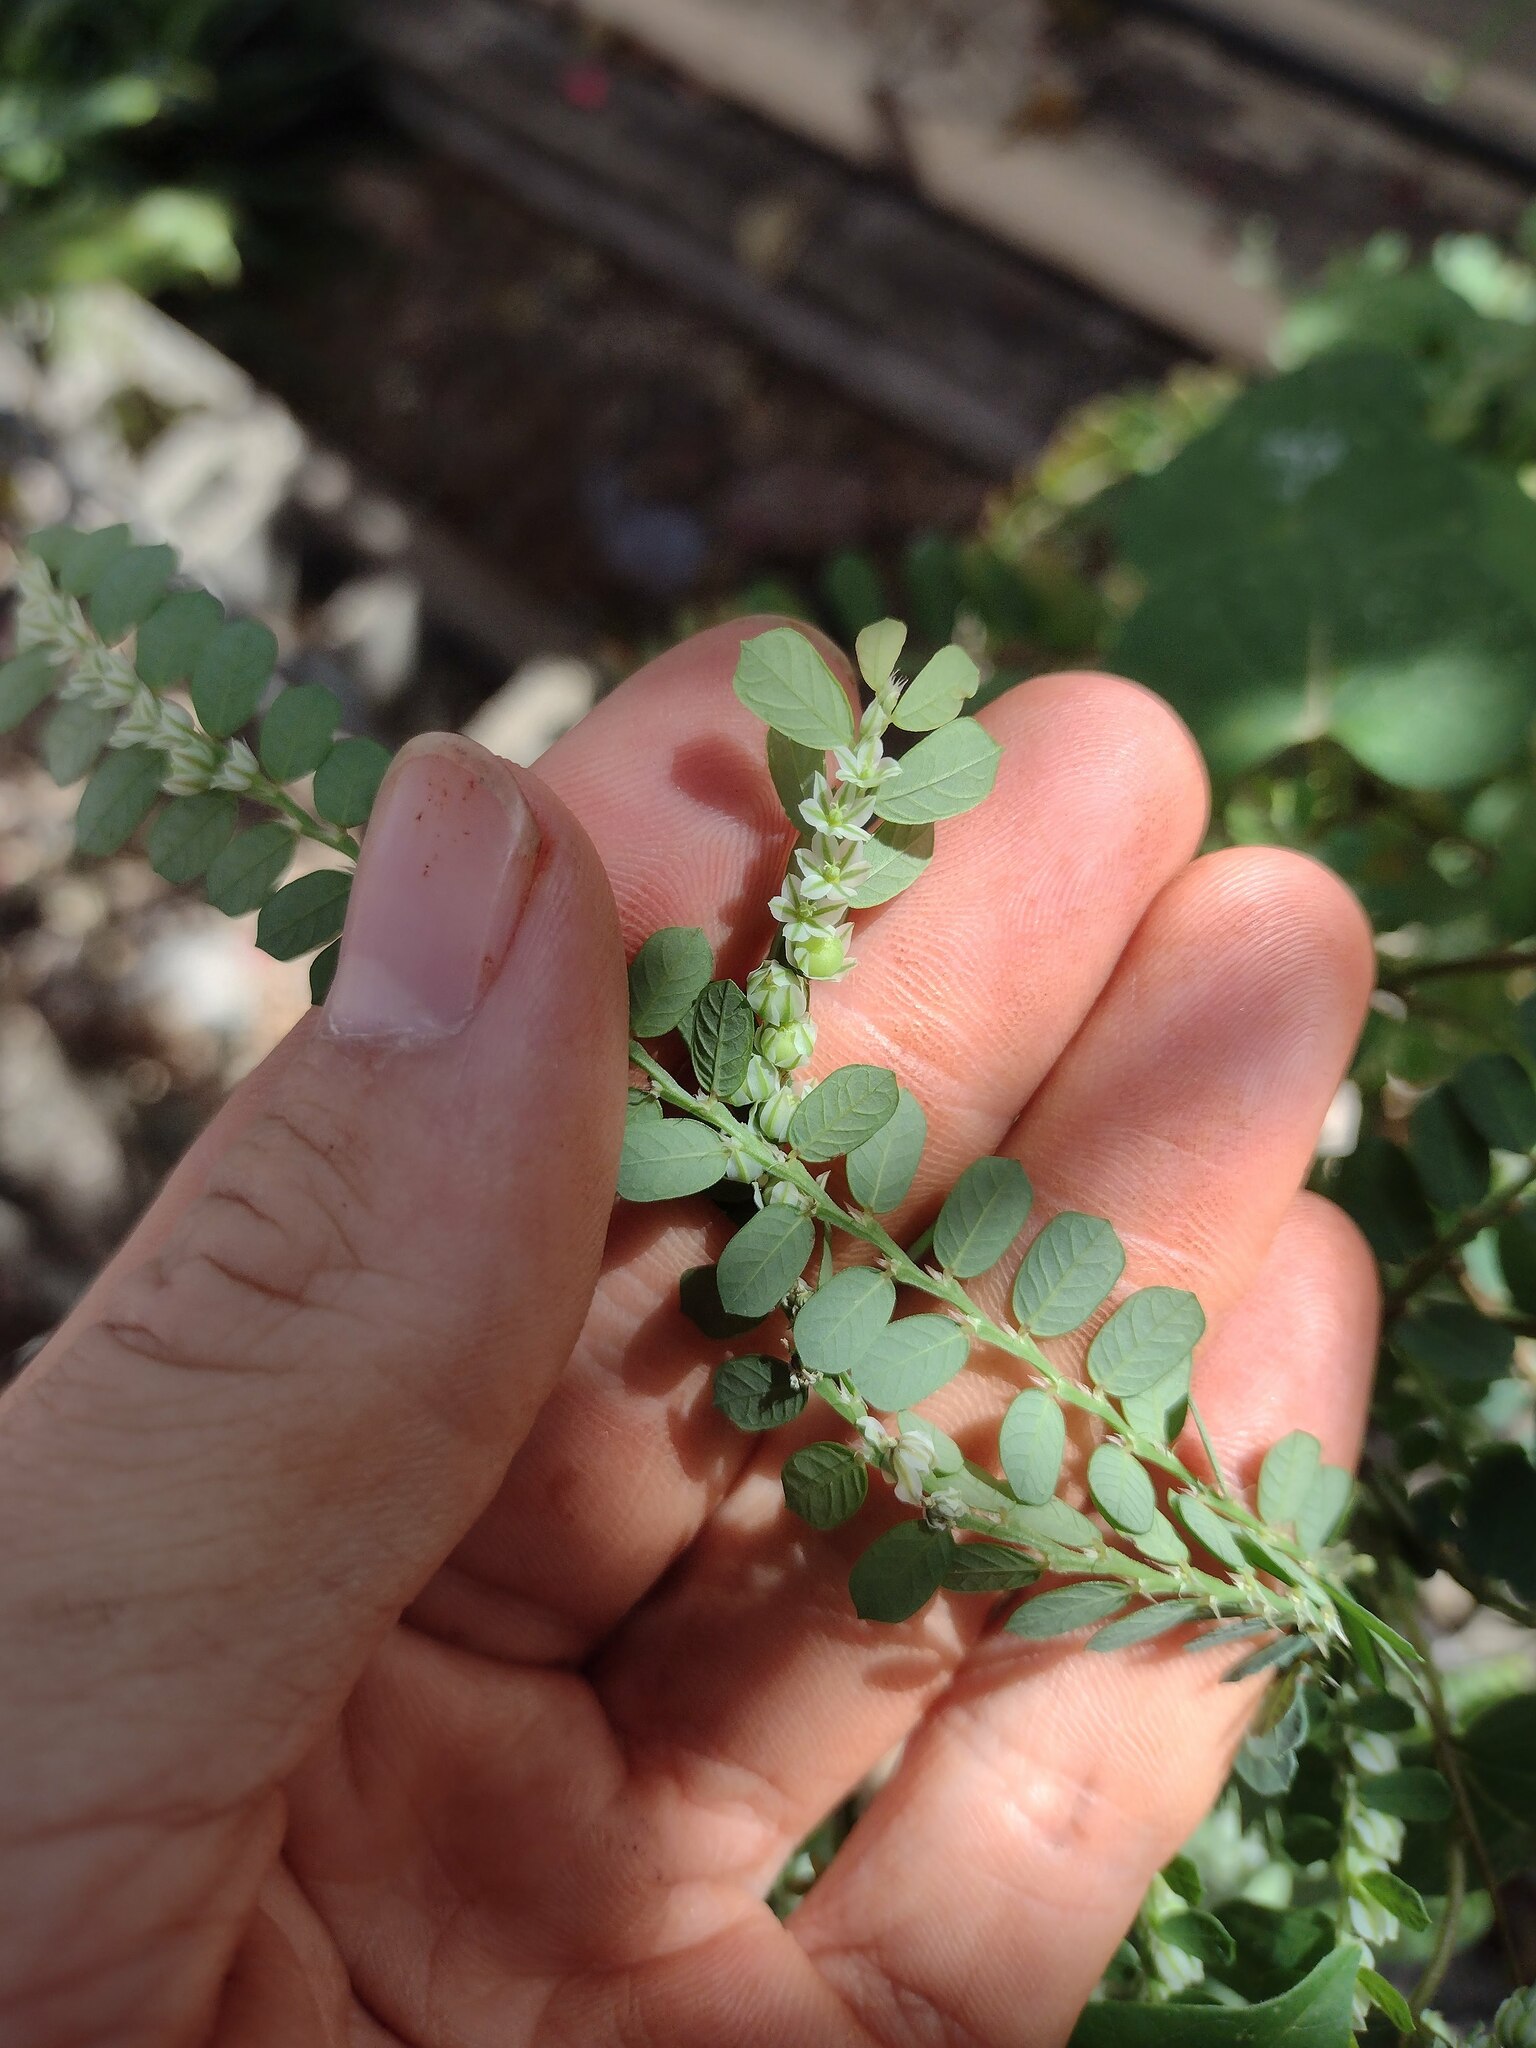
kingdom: Plantae
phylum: Tracheophyta
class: Magnoliopsida
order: Malpighiales
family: Phyllanthaceae
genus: Phyllanthus
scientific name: Phyllanthus leucanthus
